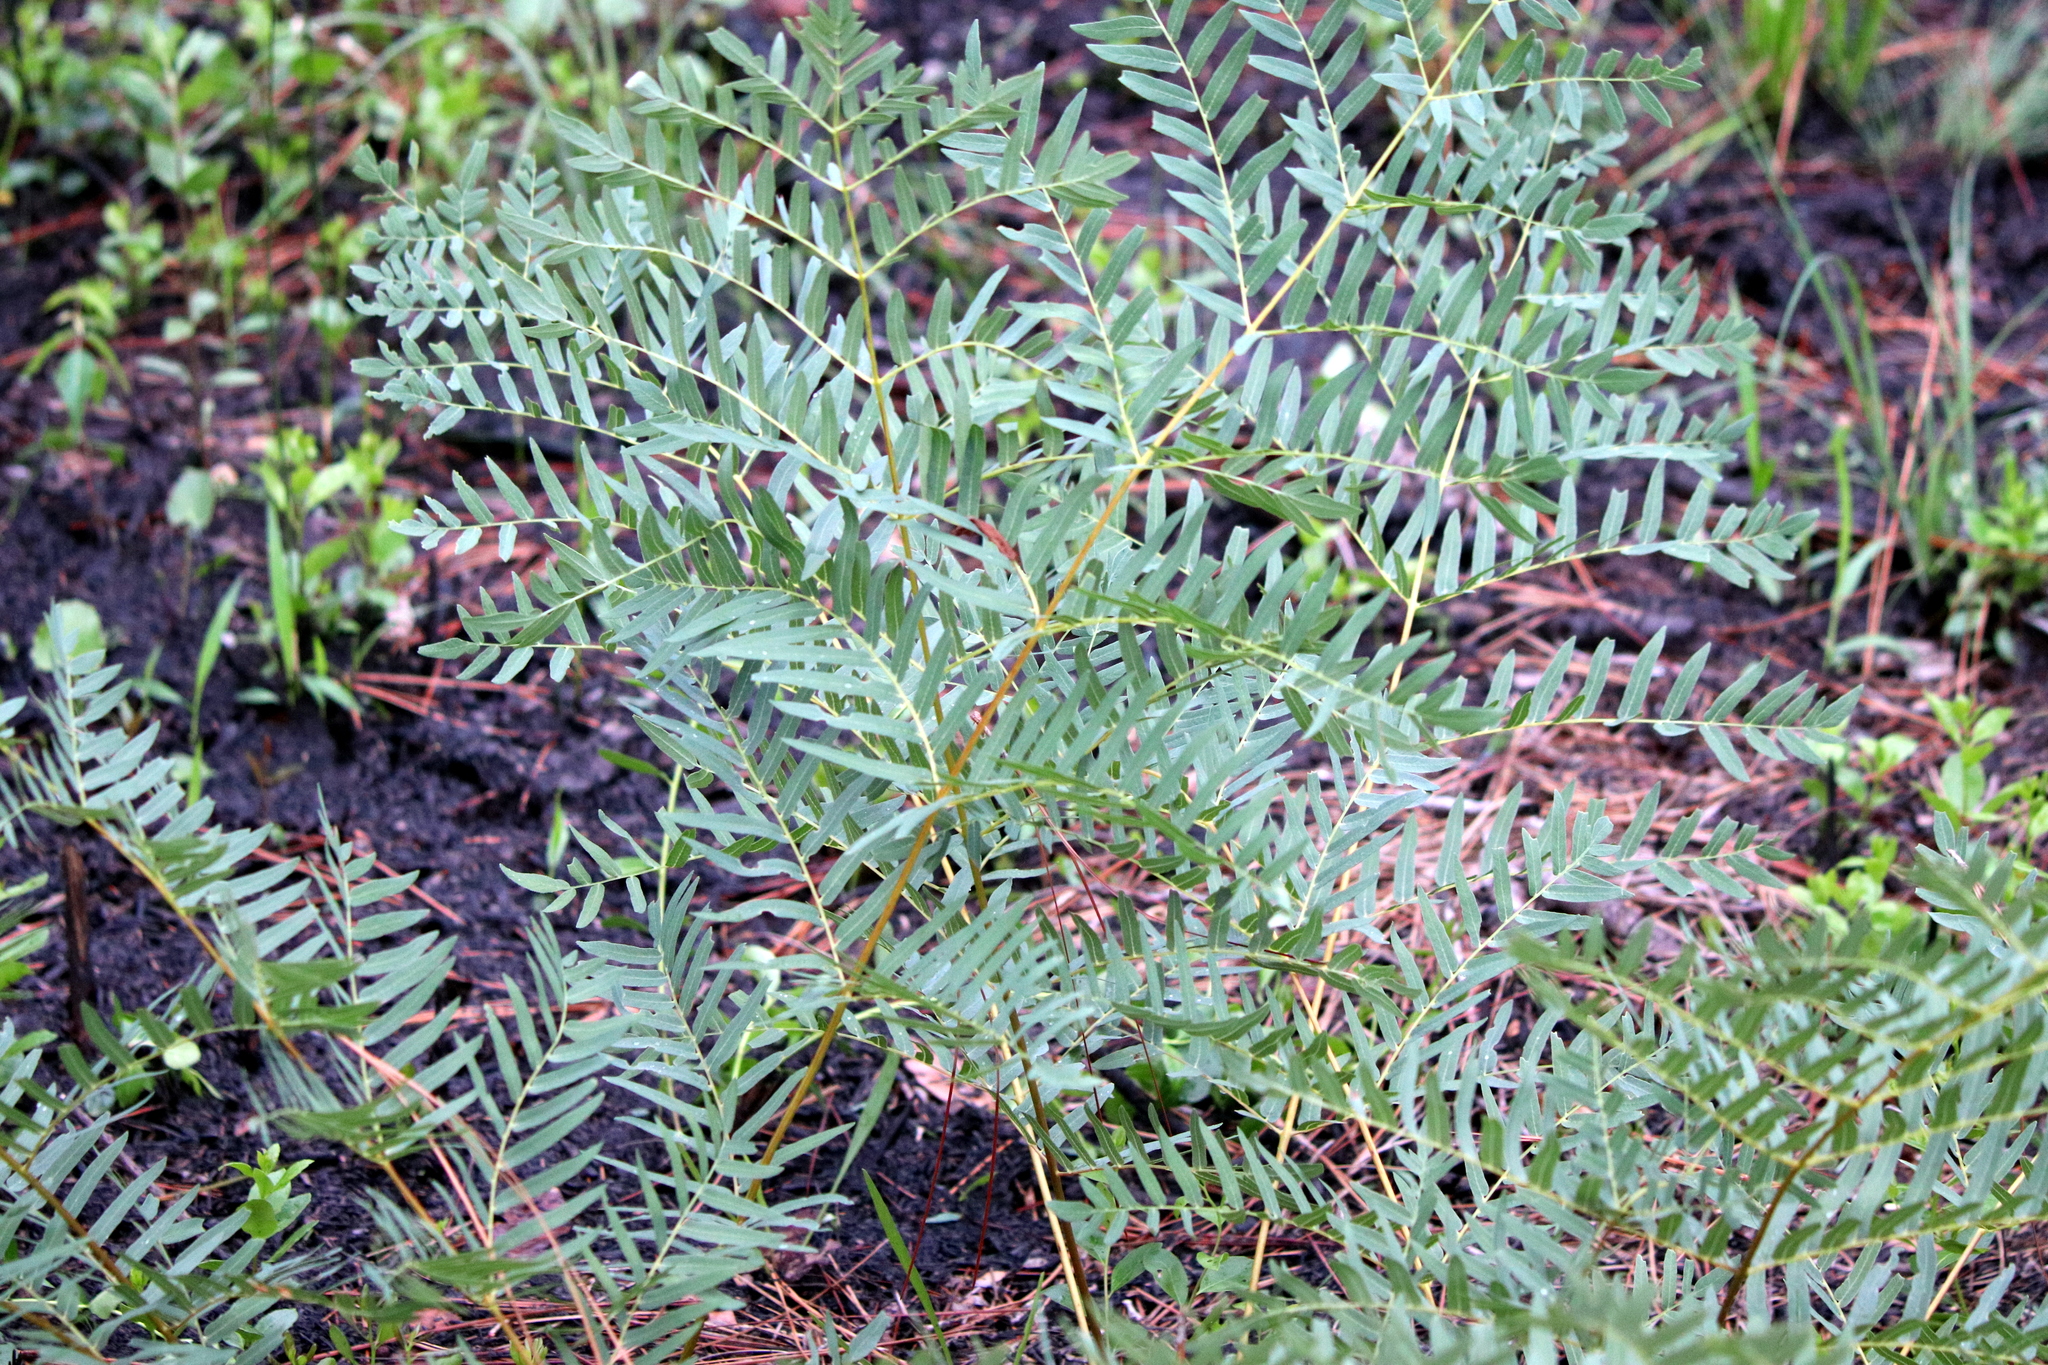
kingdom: Plantae
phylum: Tracheophyta
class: Polypodiopsida
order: Osmundales
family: Osmundaceae
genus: Osmunda
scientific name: Osmunda spectabilis
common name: American royal fern
